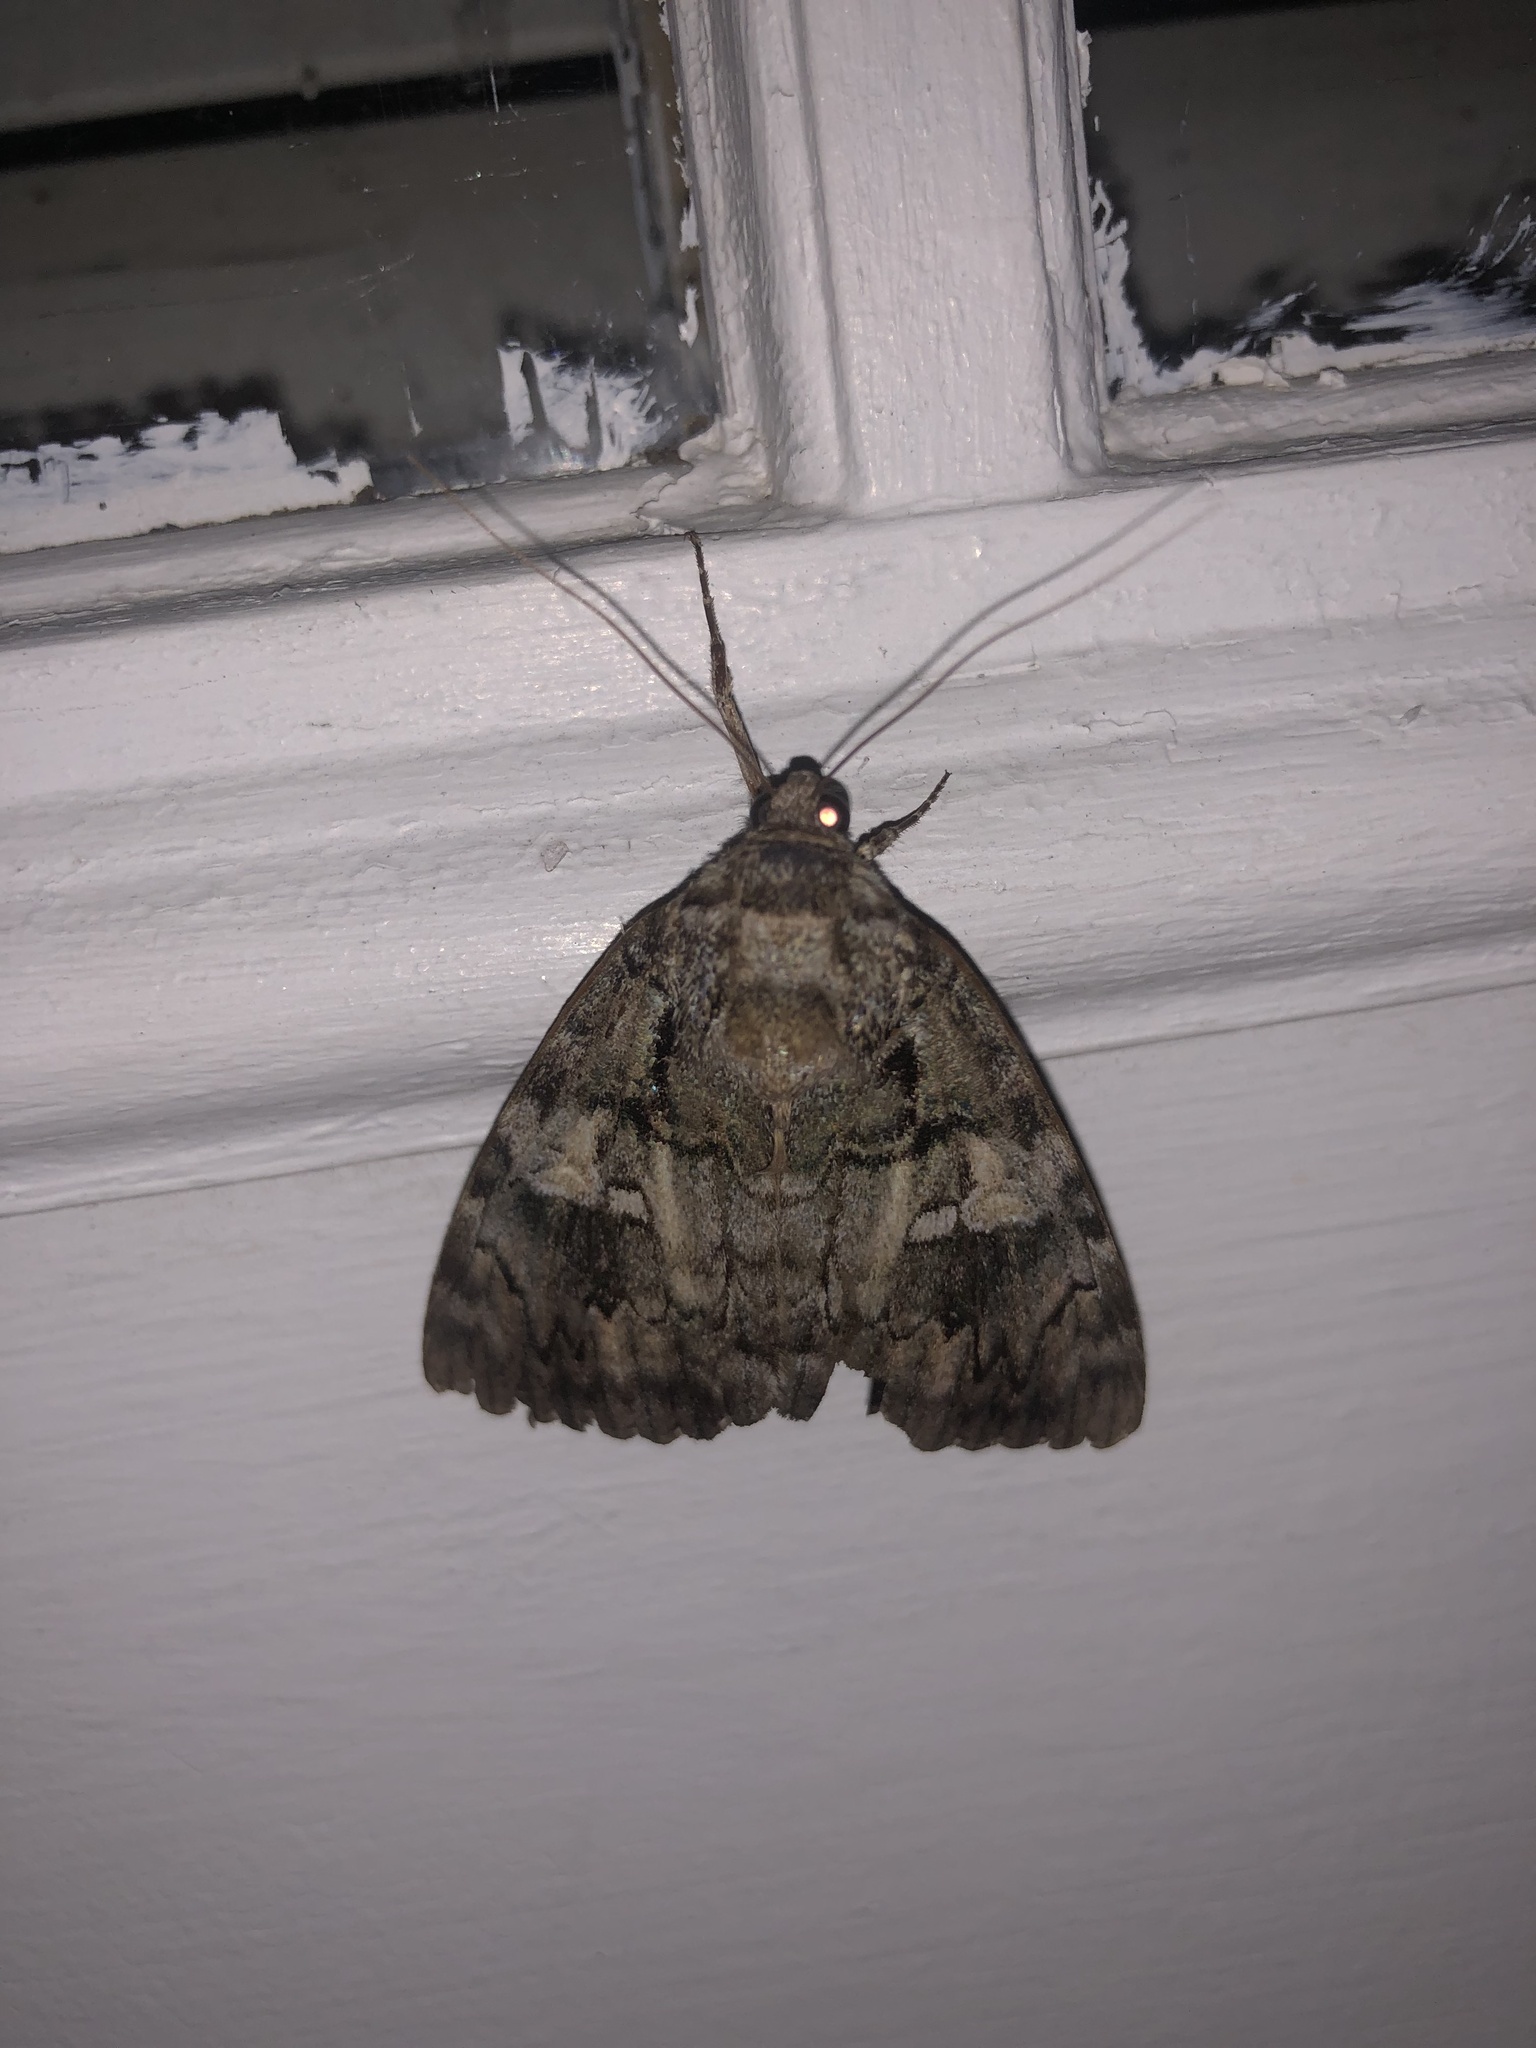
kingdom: Animalia
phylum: Arthropoda
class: Insecta
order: Lepidoptera
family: Erebidae
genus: Catocala
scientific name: Catocala ilia
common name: Ilia underwing
